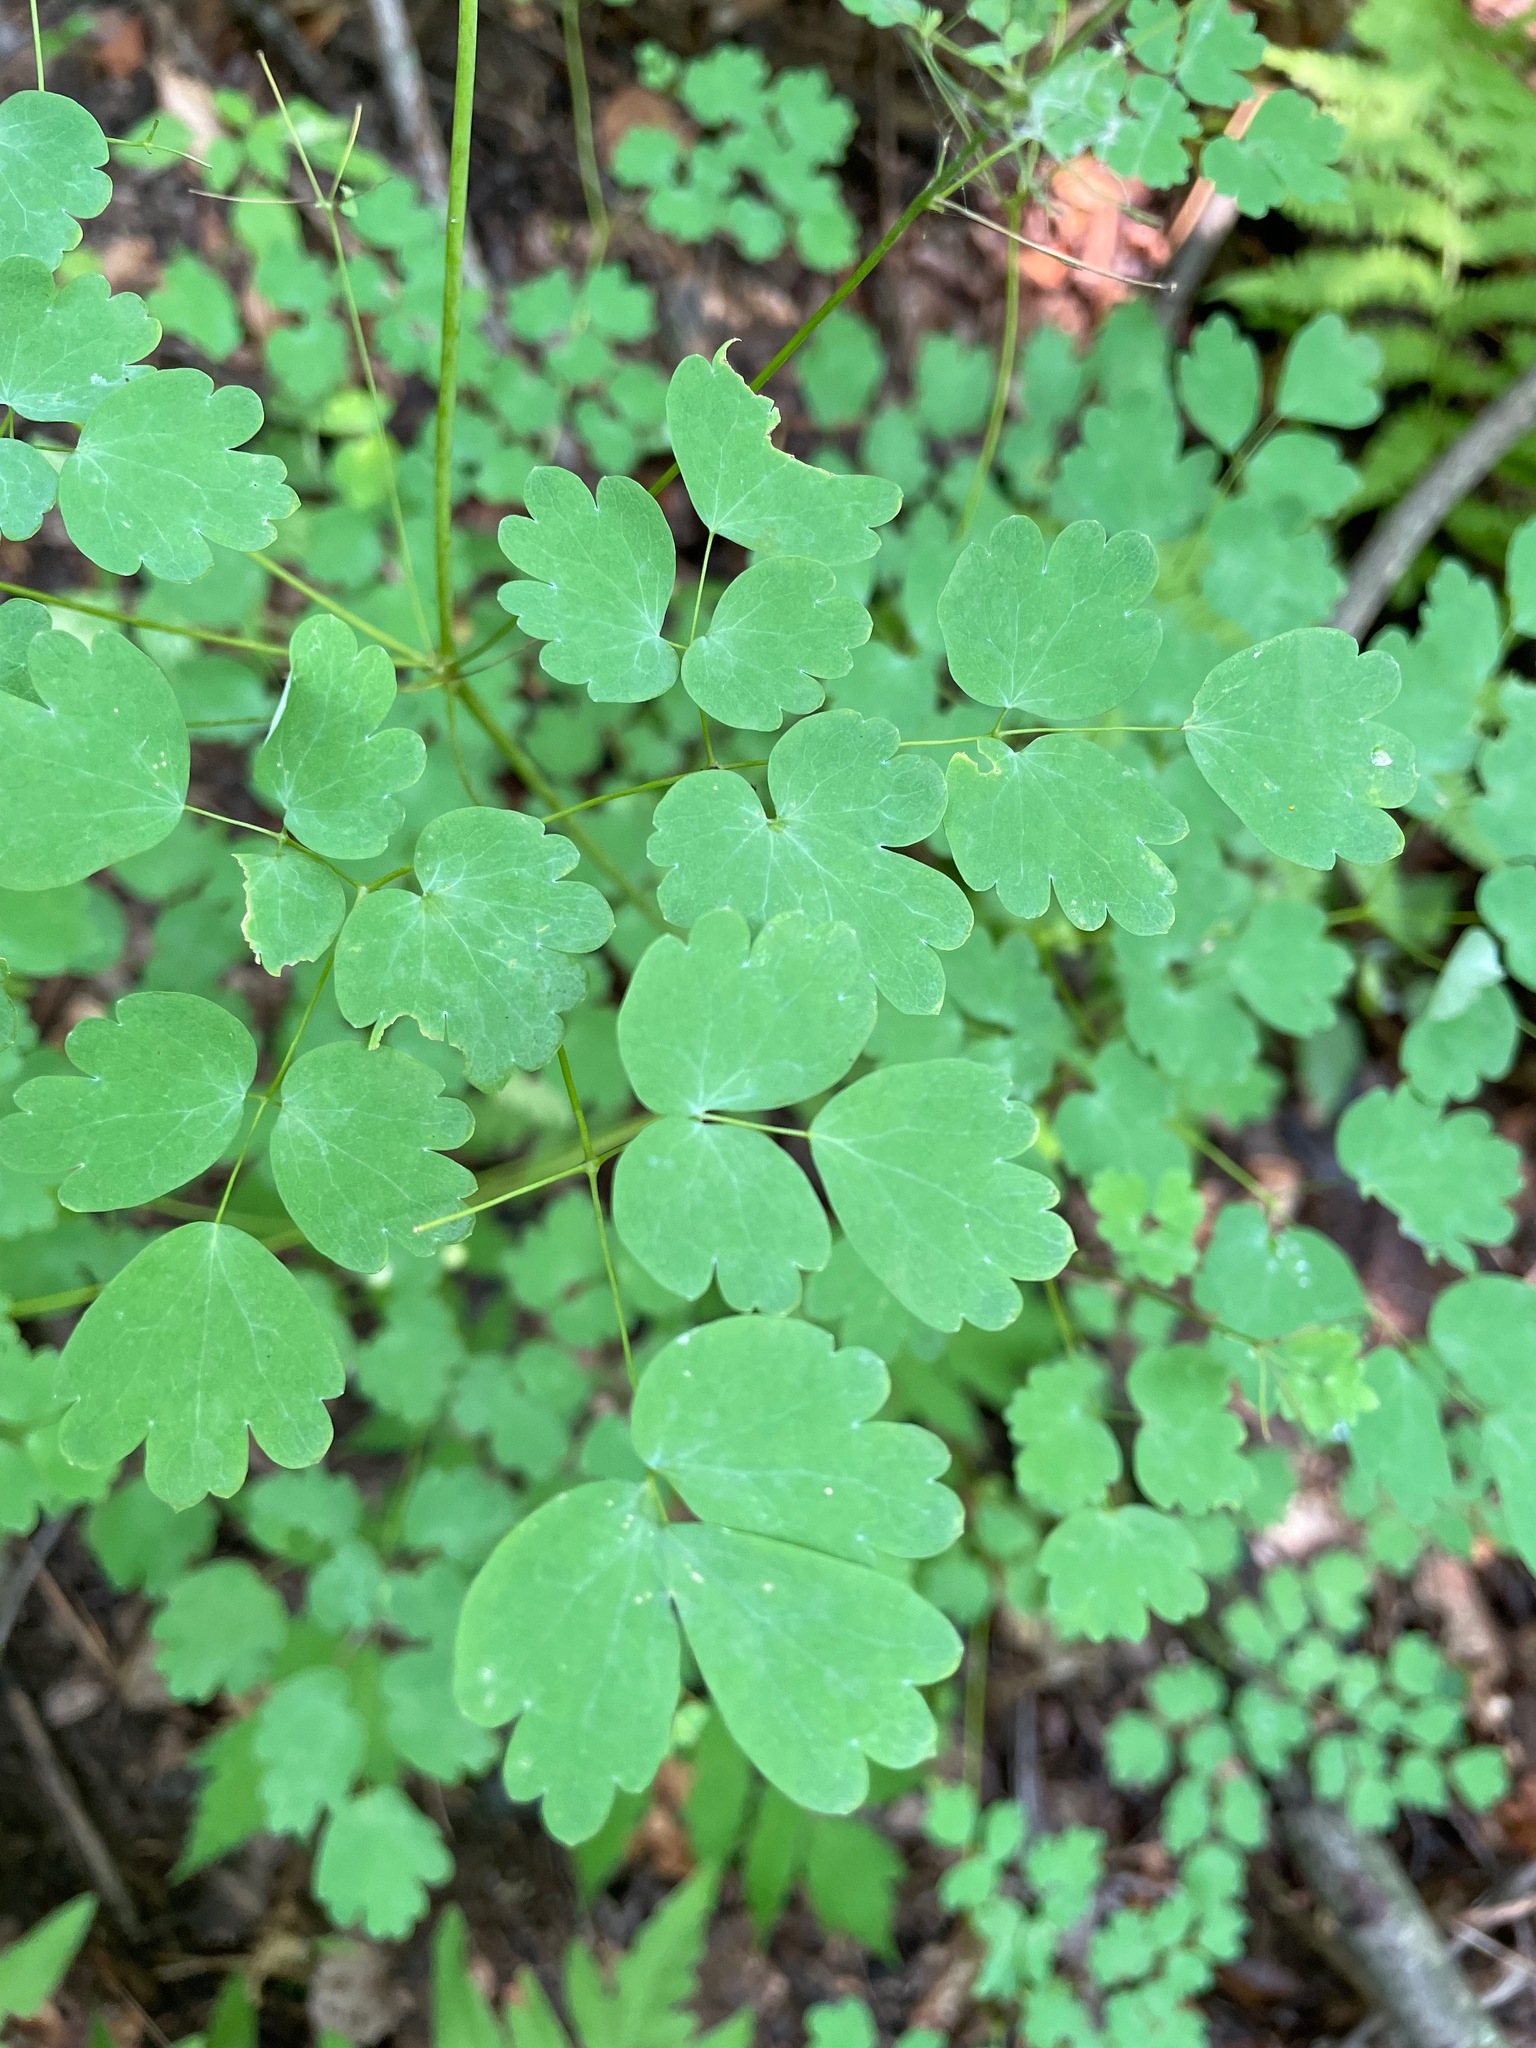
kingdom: Plantae
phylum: Tracheophyta
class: Magnoliopsida
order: Ranunculales
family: Ranunculaceae
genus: Thalictrum
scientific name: Thalictrum dioicum
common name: Early meadow-rue
